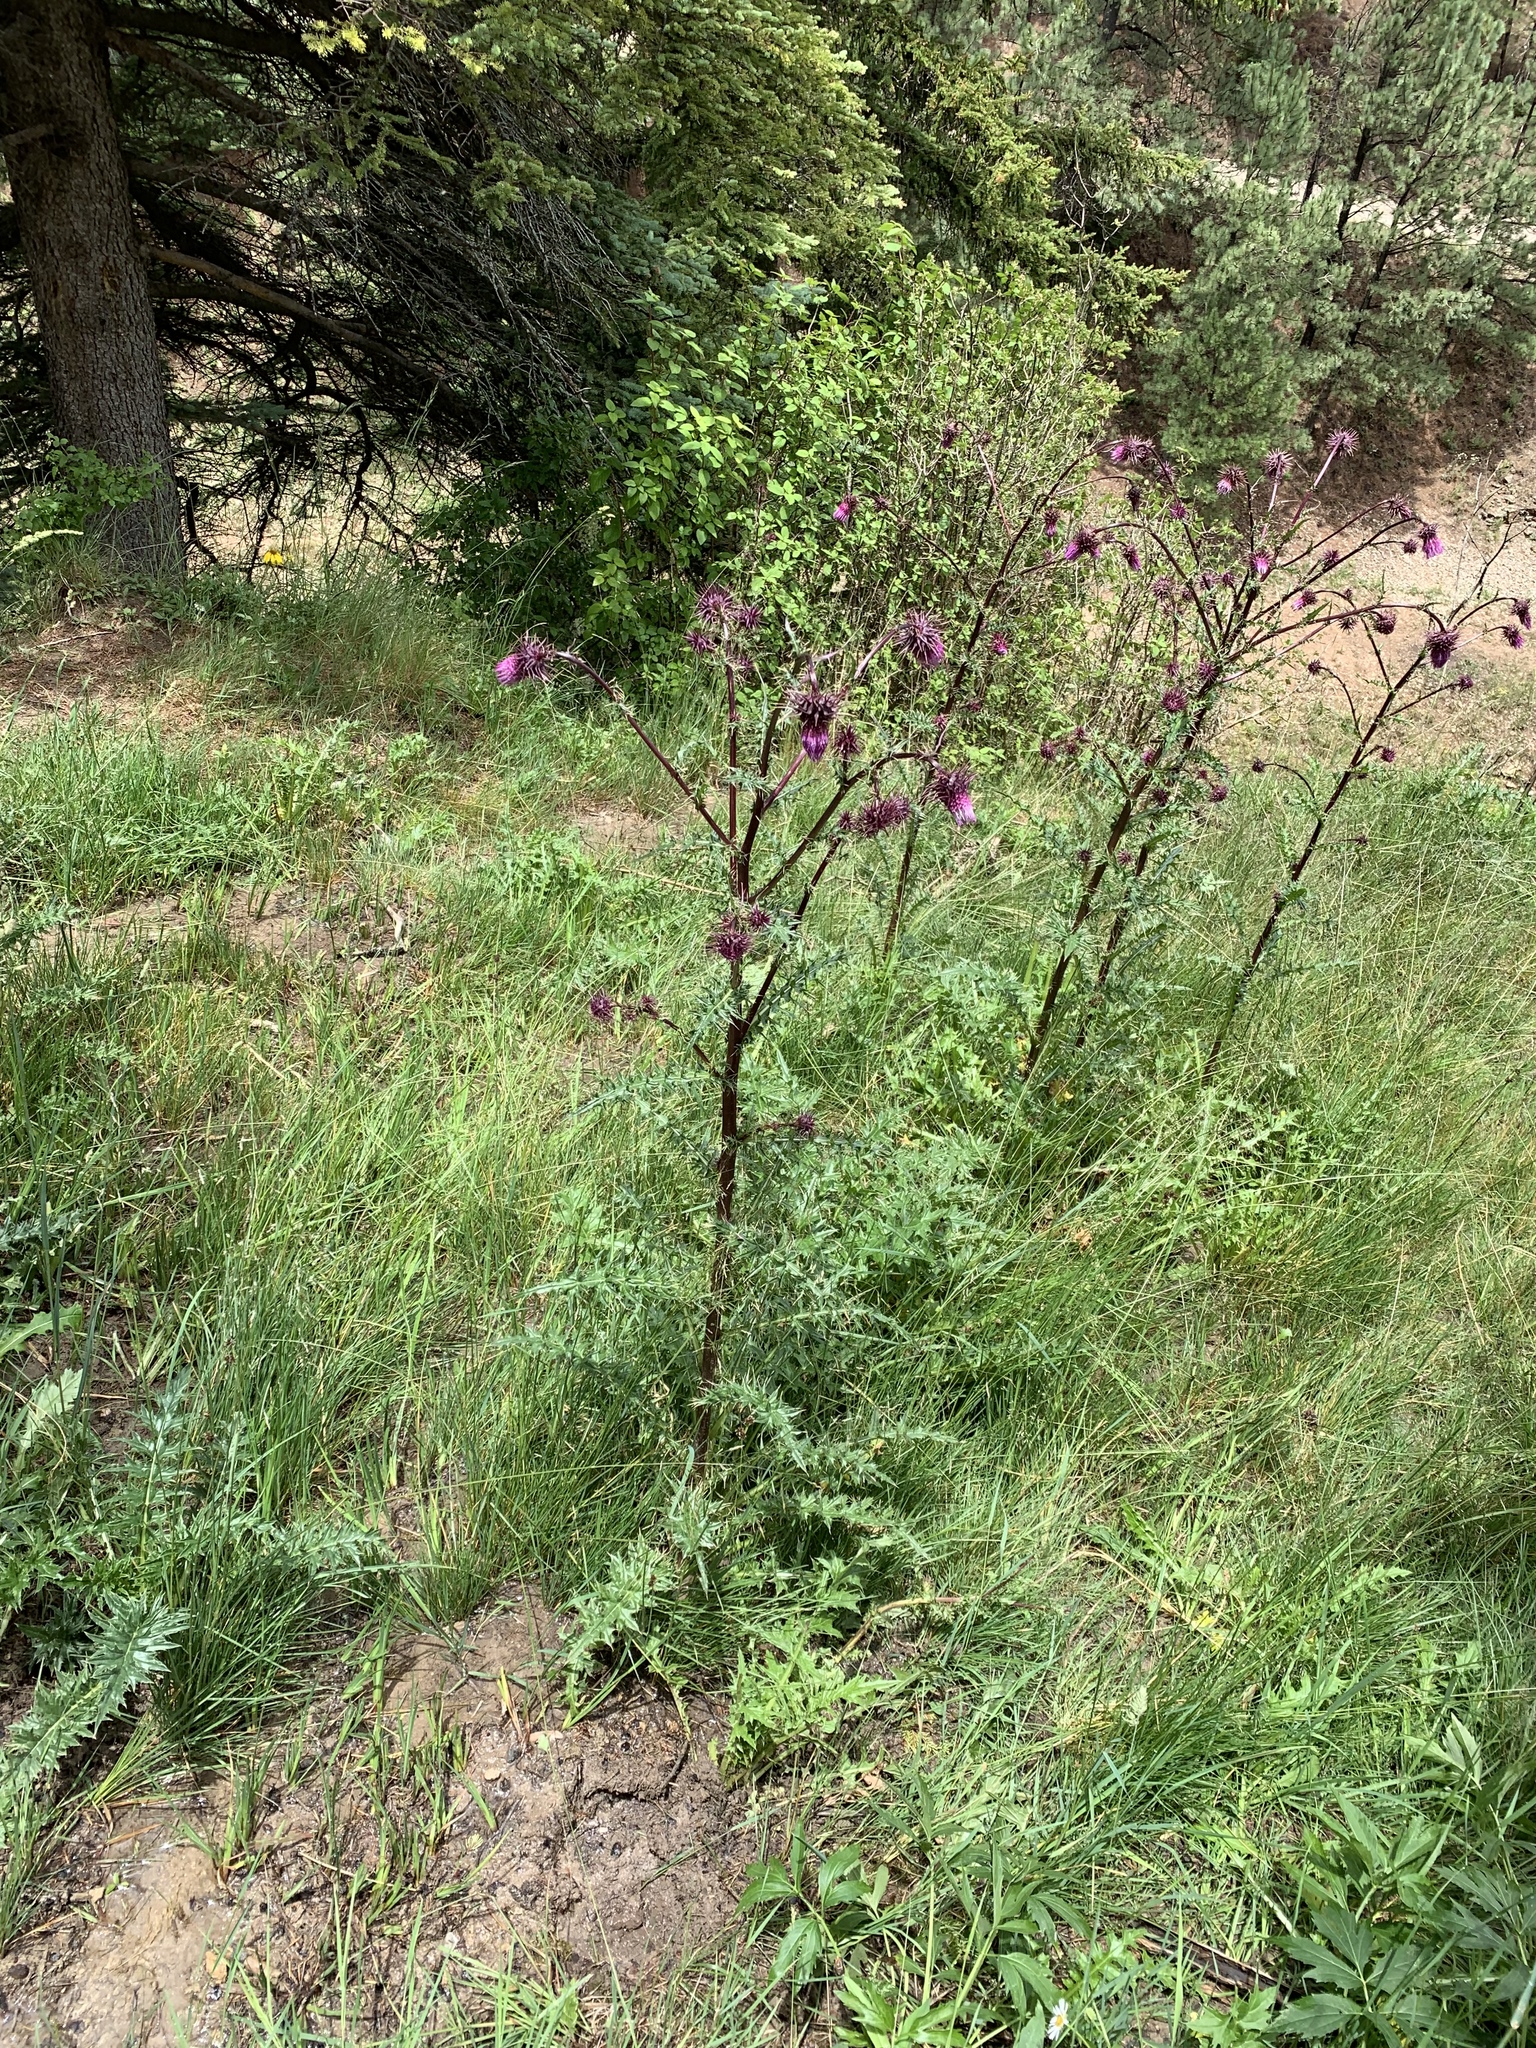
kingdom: Plantae
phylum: Tracheophyta
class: Magnoliopsida
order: Asterales
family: Asteraceae
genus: Cirsium
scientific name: Cirsium vinaceum
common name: Sacramento mountain thistle
